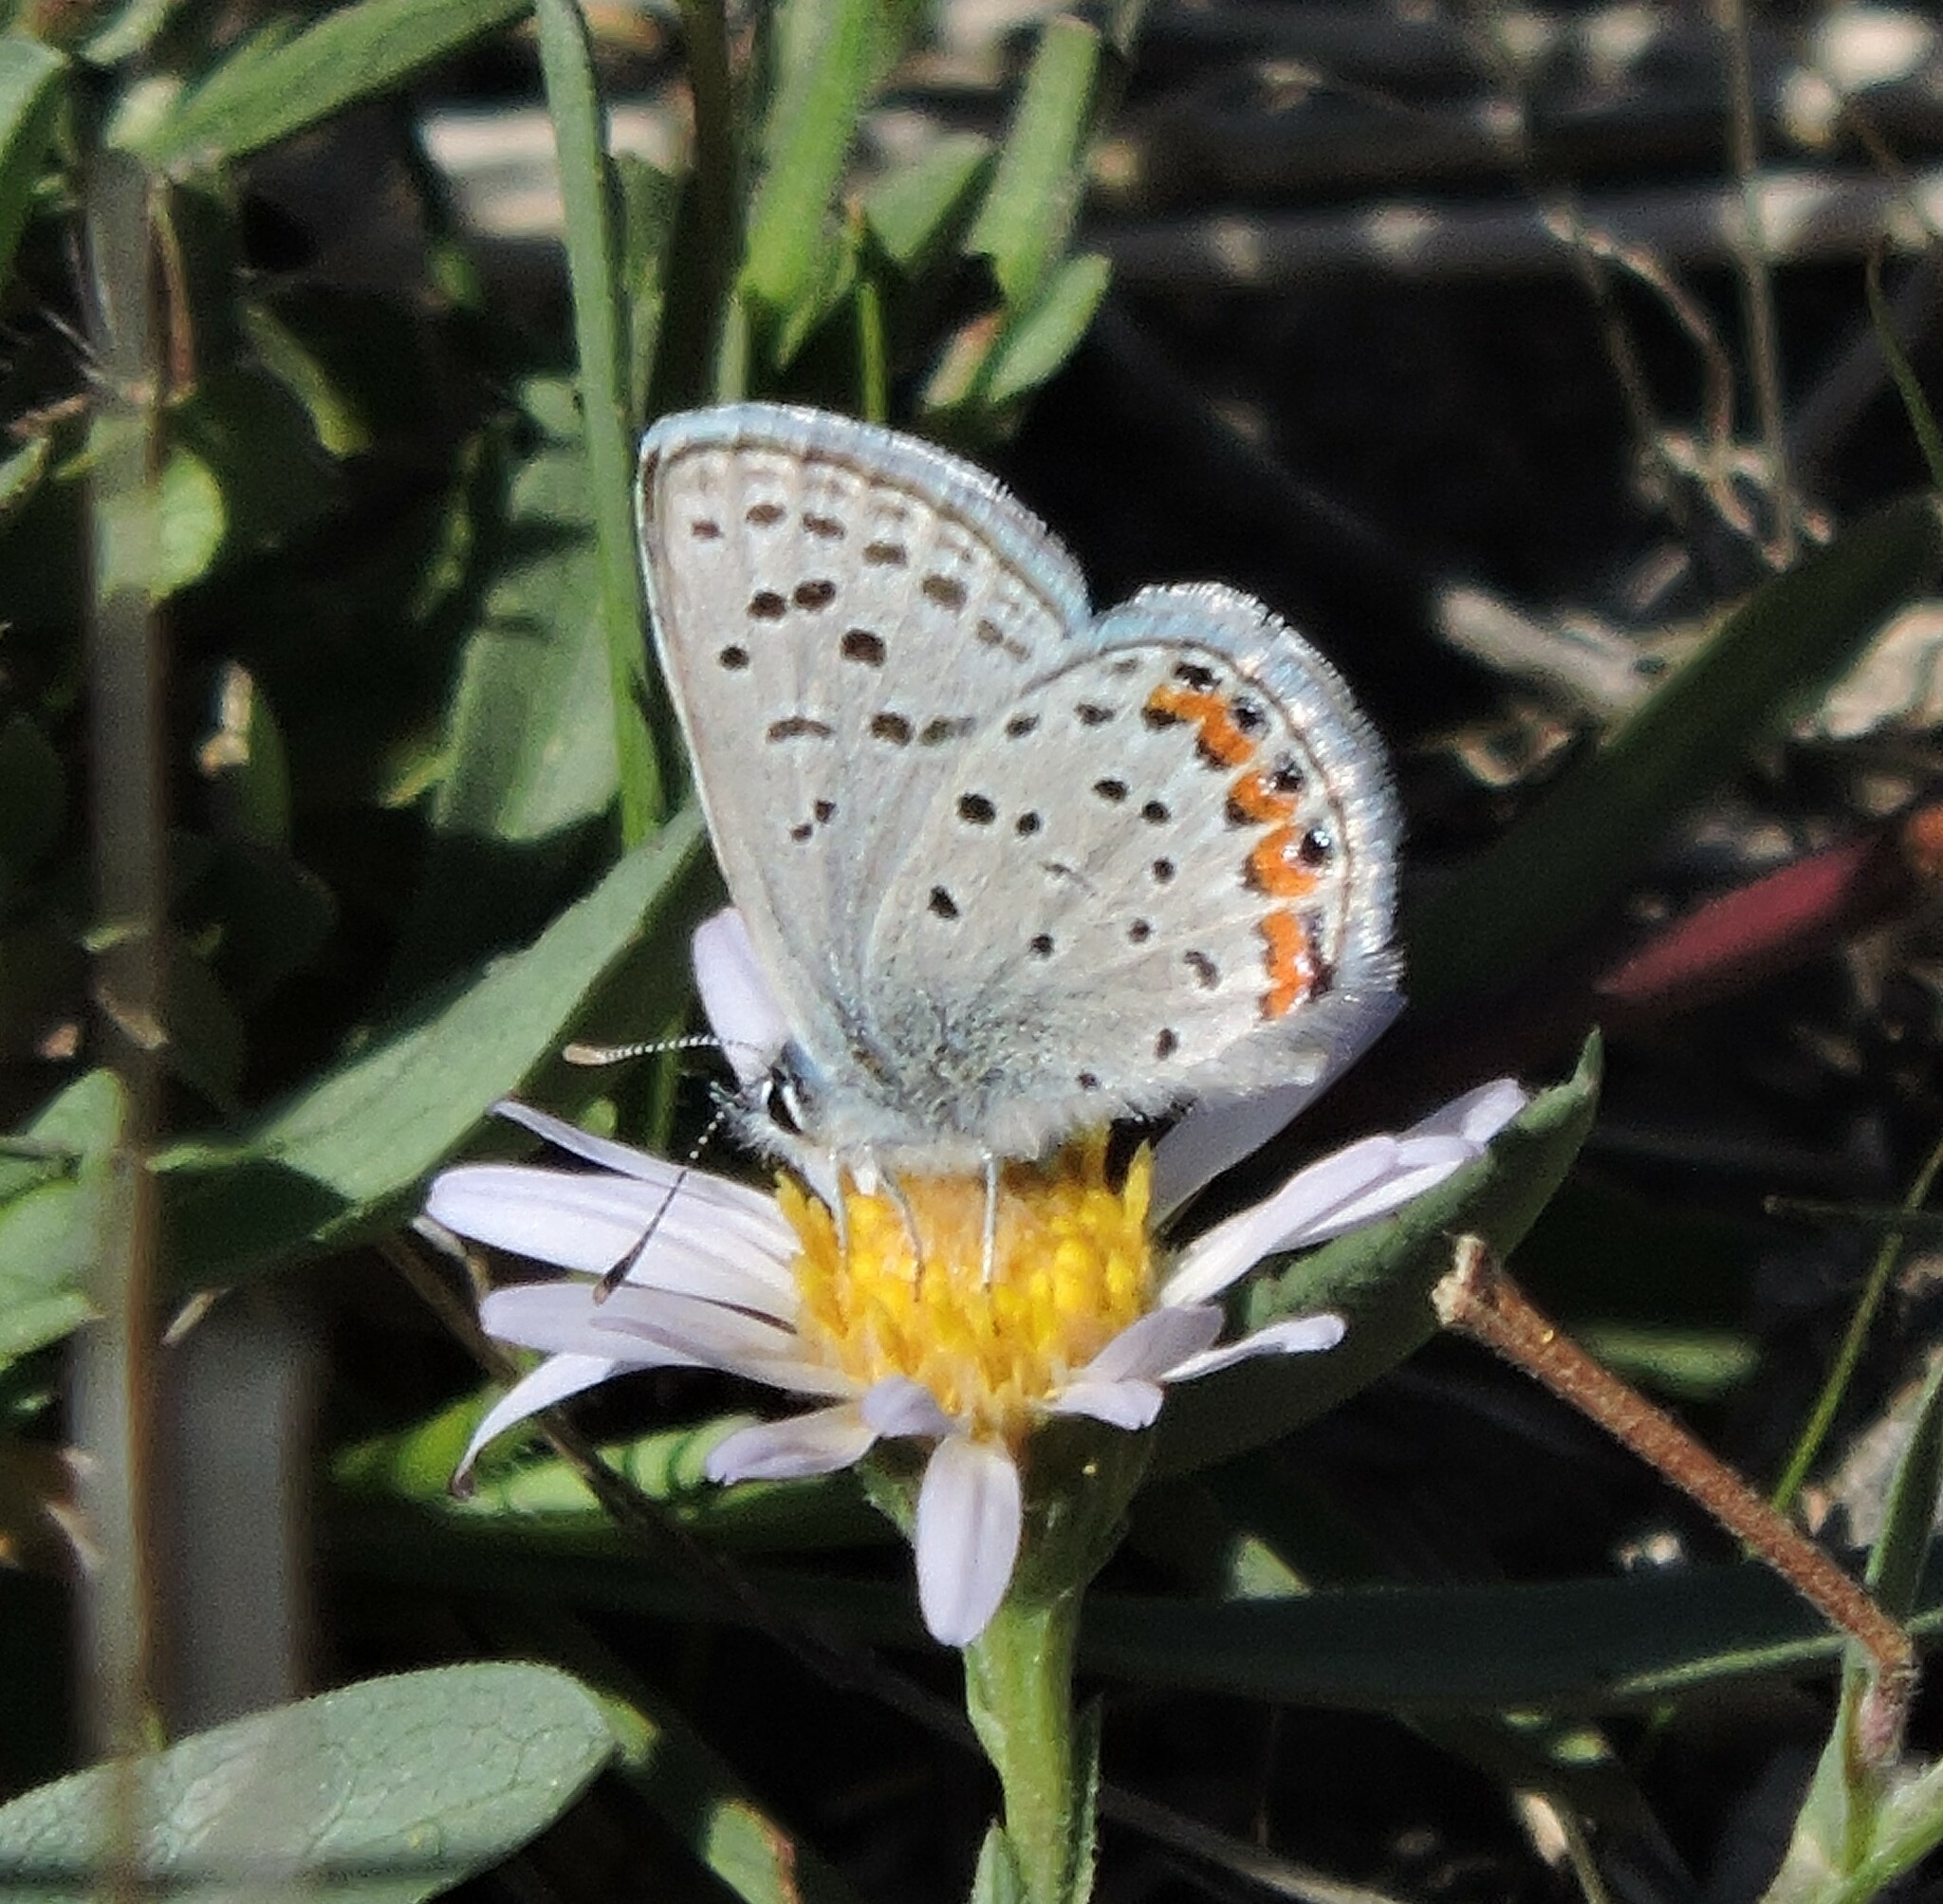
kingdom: Animalia
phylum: Arthropoda
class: Insecta
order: Lepidoptera
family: Lycaenidae
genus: Icaricia
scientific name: Icaricia acmon
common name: Acmon blue
